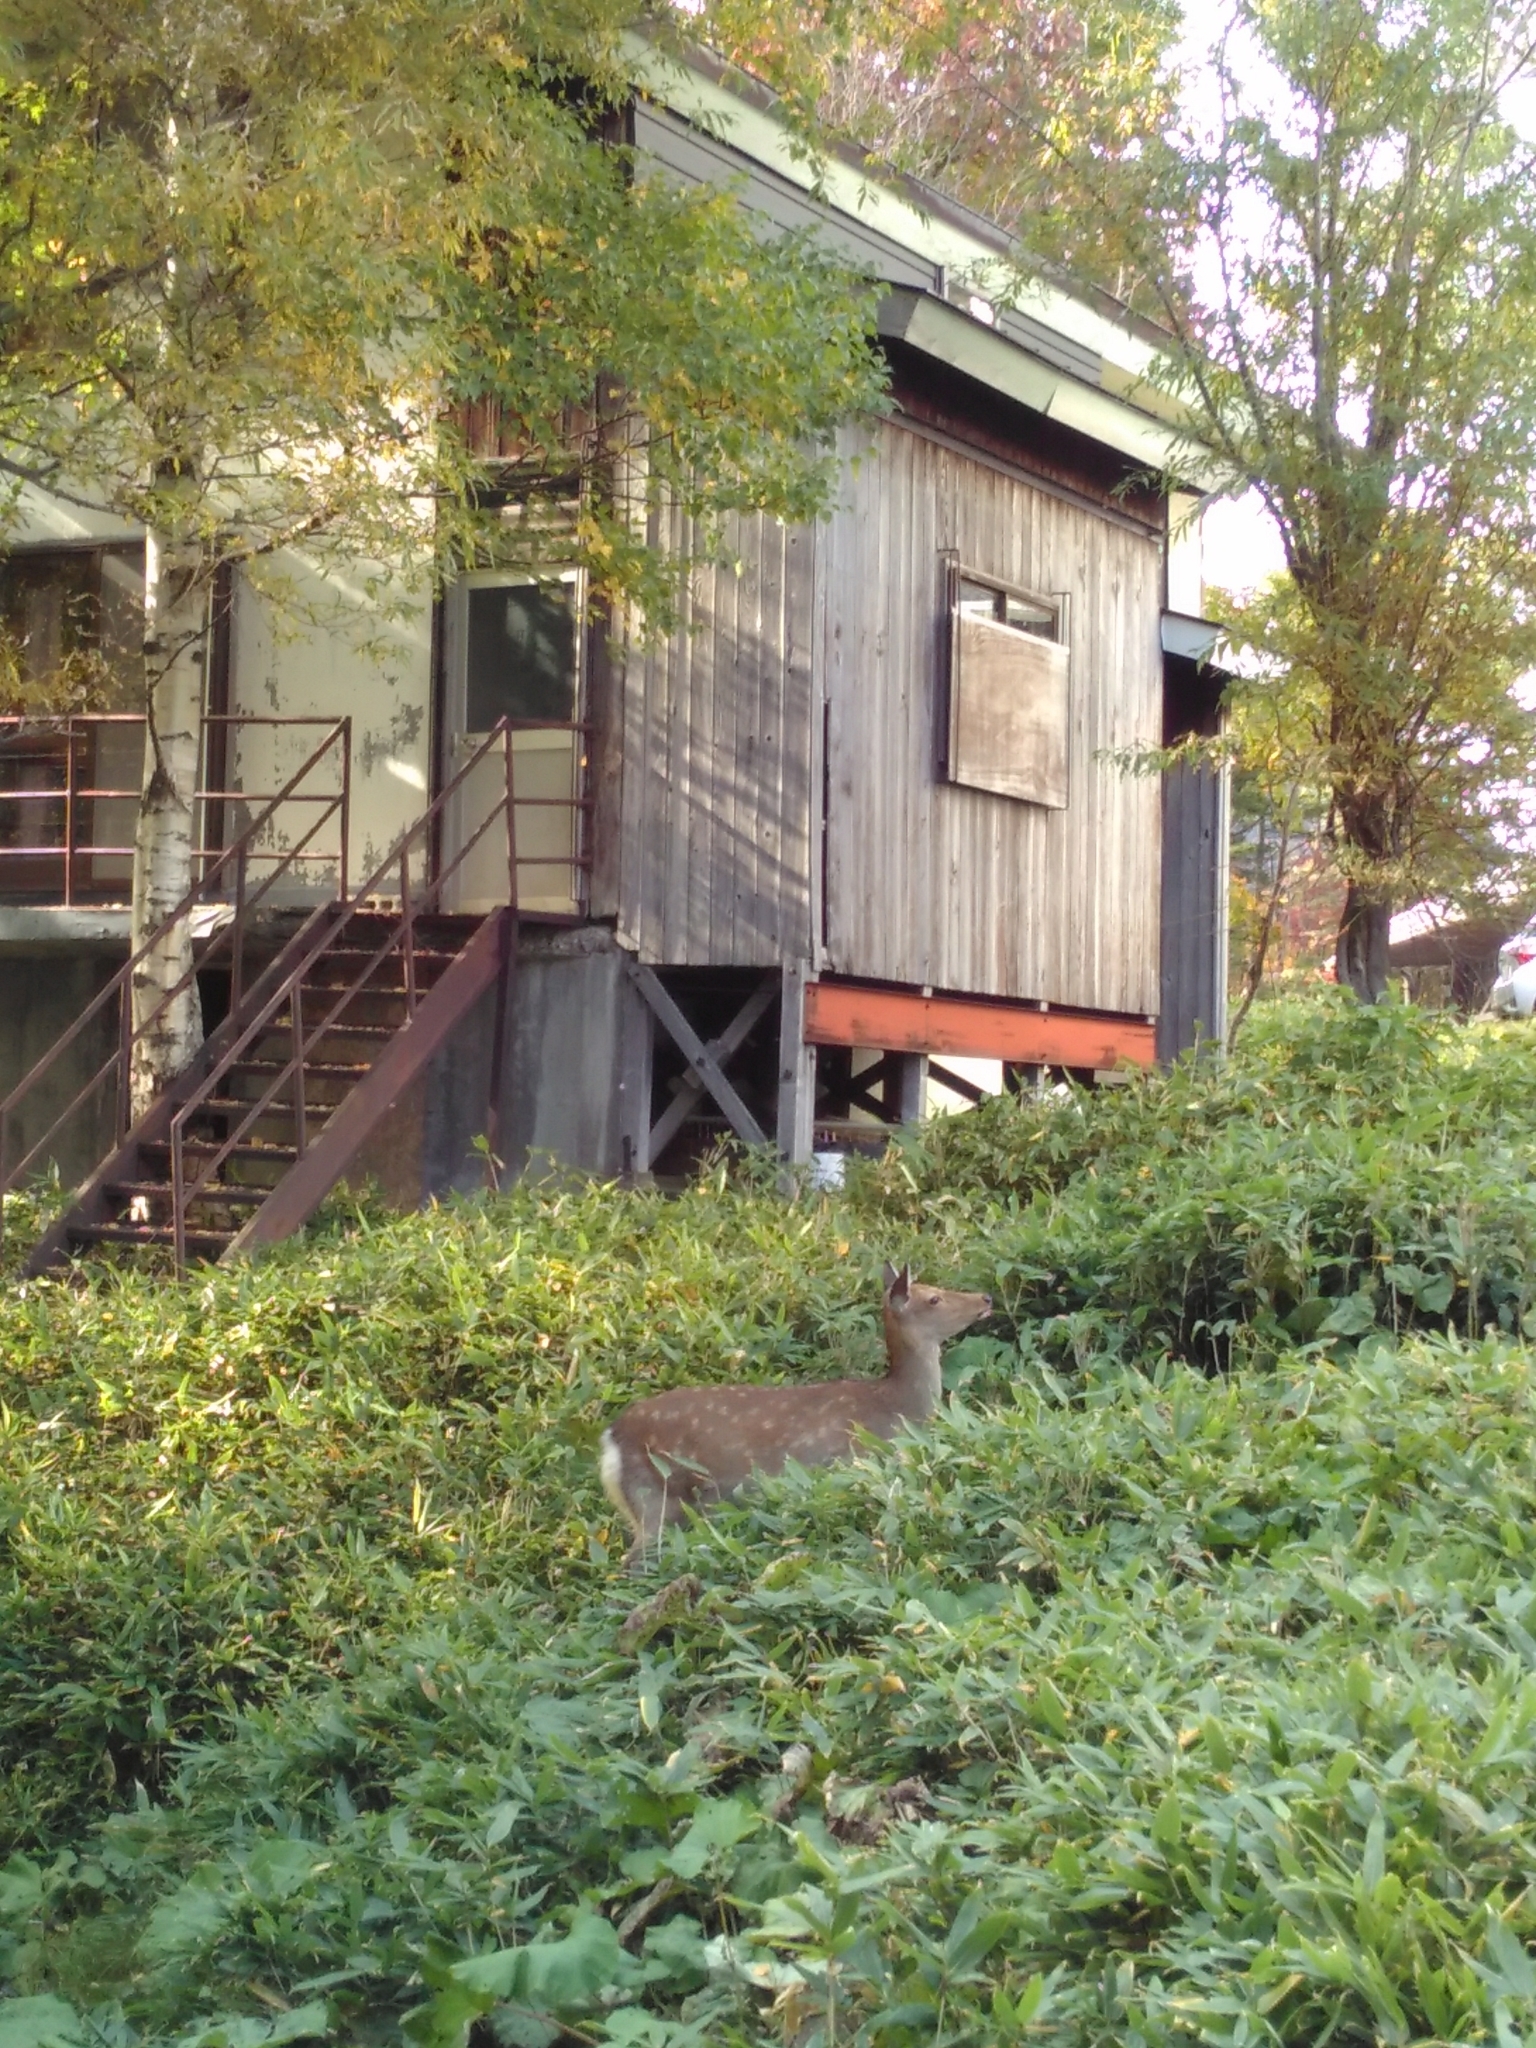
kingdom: Animalia
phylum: Chordata
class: Mammalia
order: Artiodactyla
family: Cervidae
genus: Cervus
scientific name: Cervus nippon
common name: Sika deer
